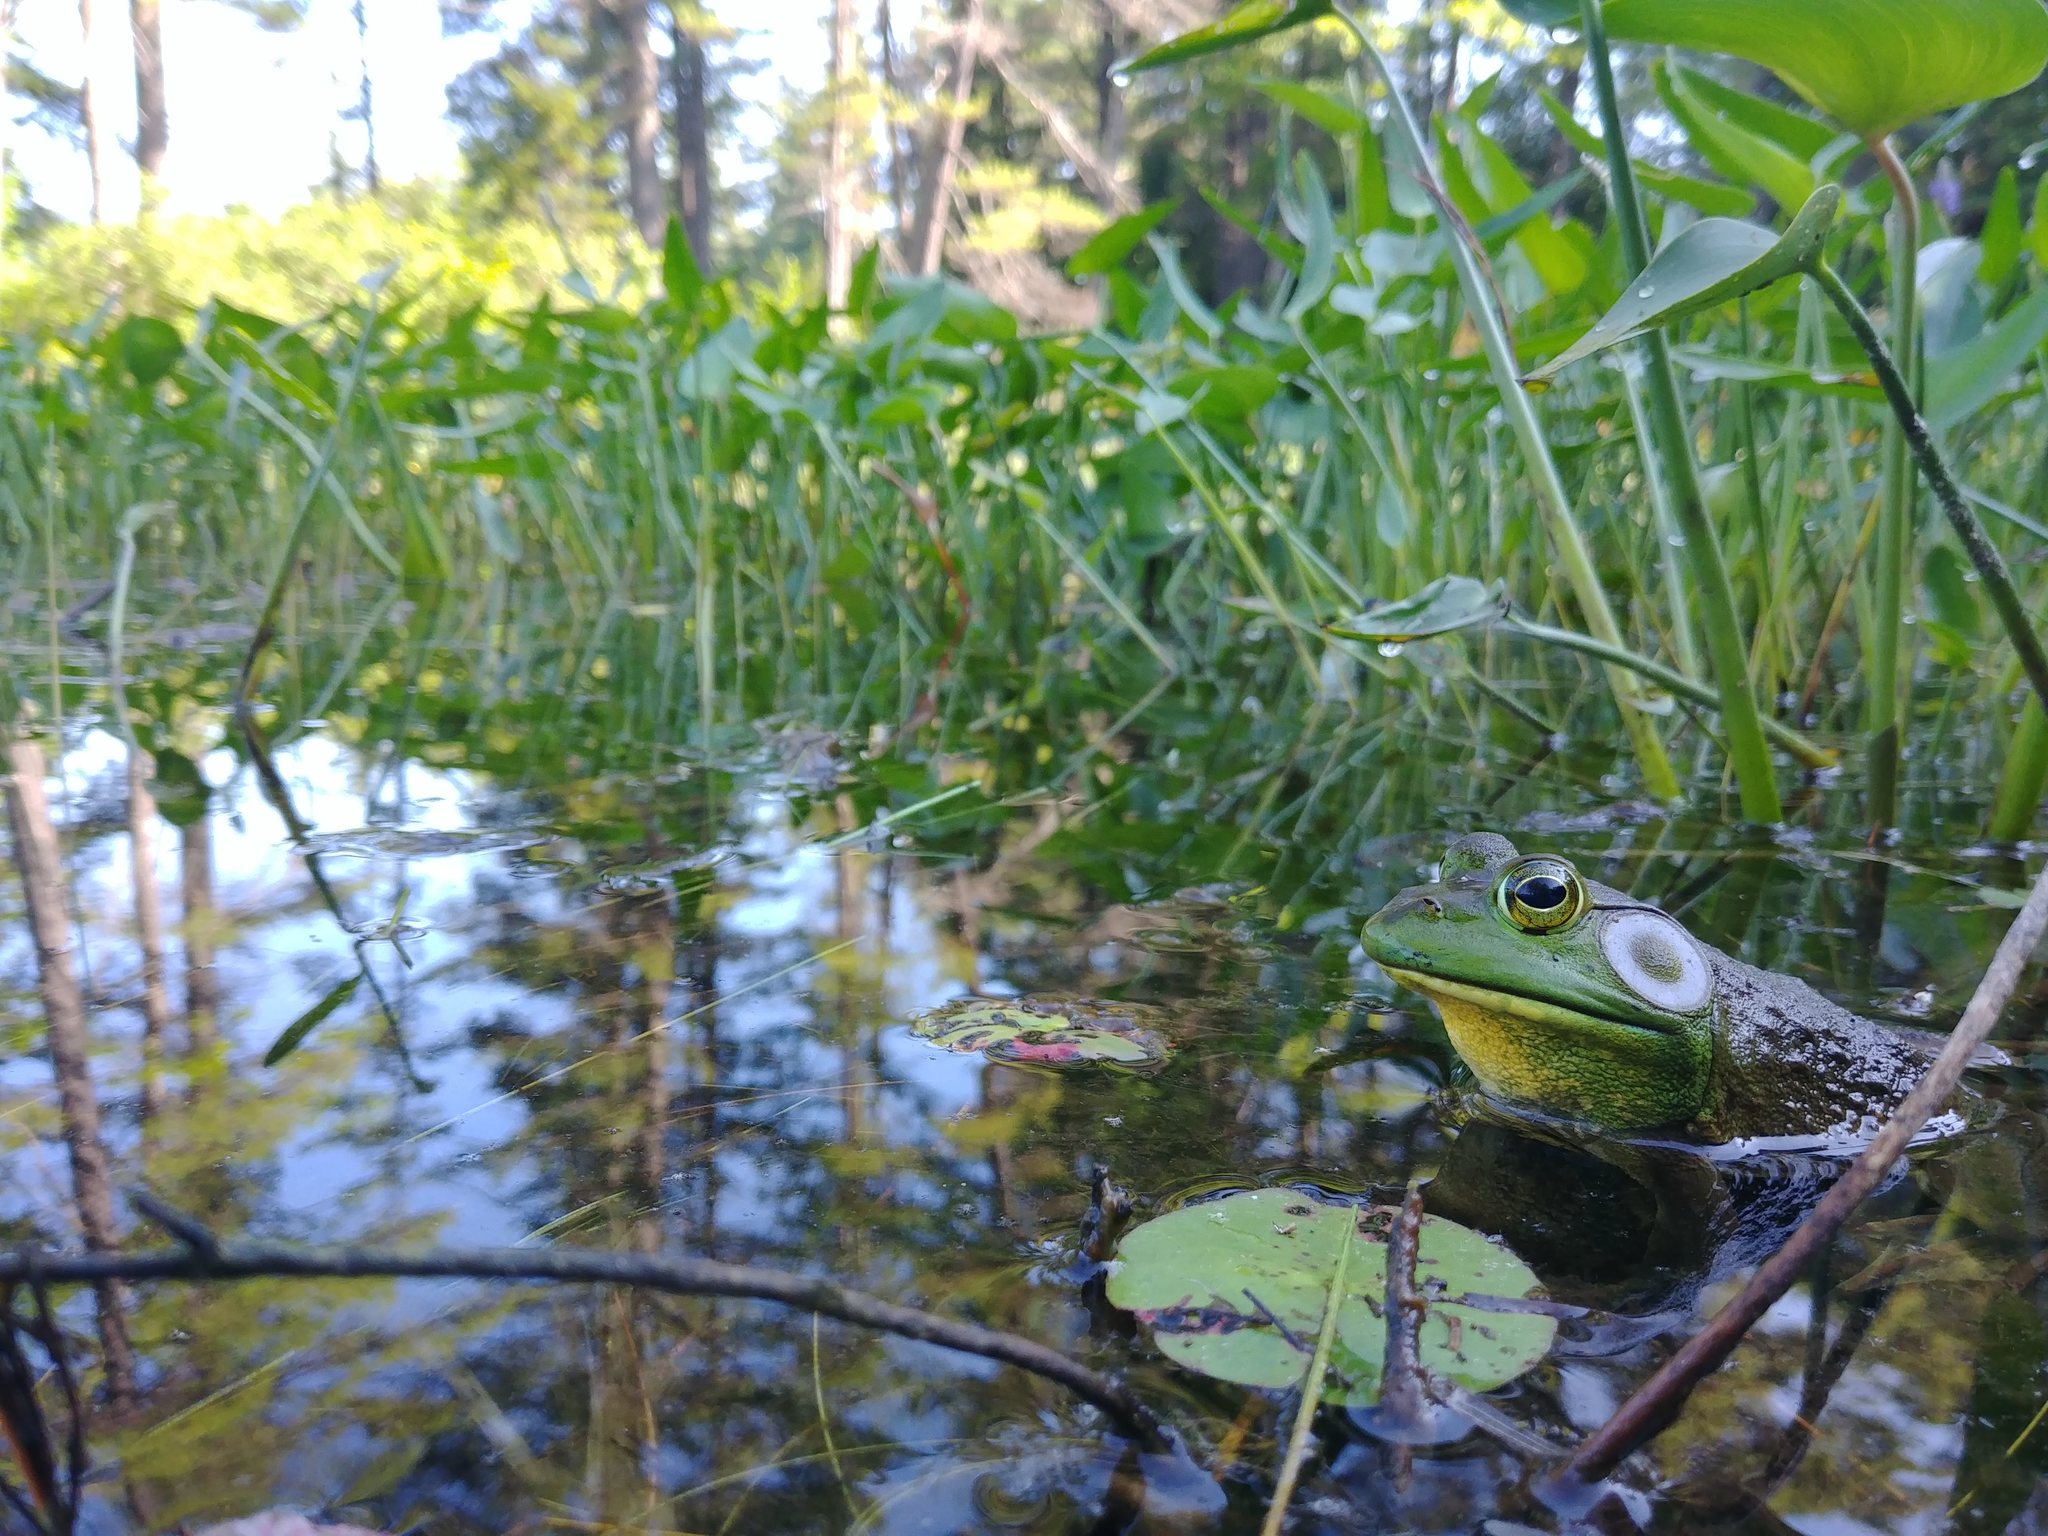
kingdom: Animalia
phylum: Chordata
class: Amphibia
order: Anura
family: Ranidae
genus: Lithobates
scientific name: Lithobates catesbeianus
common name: American bullfrog
